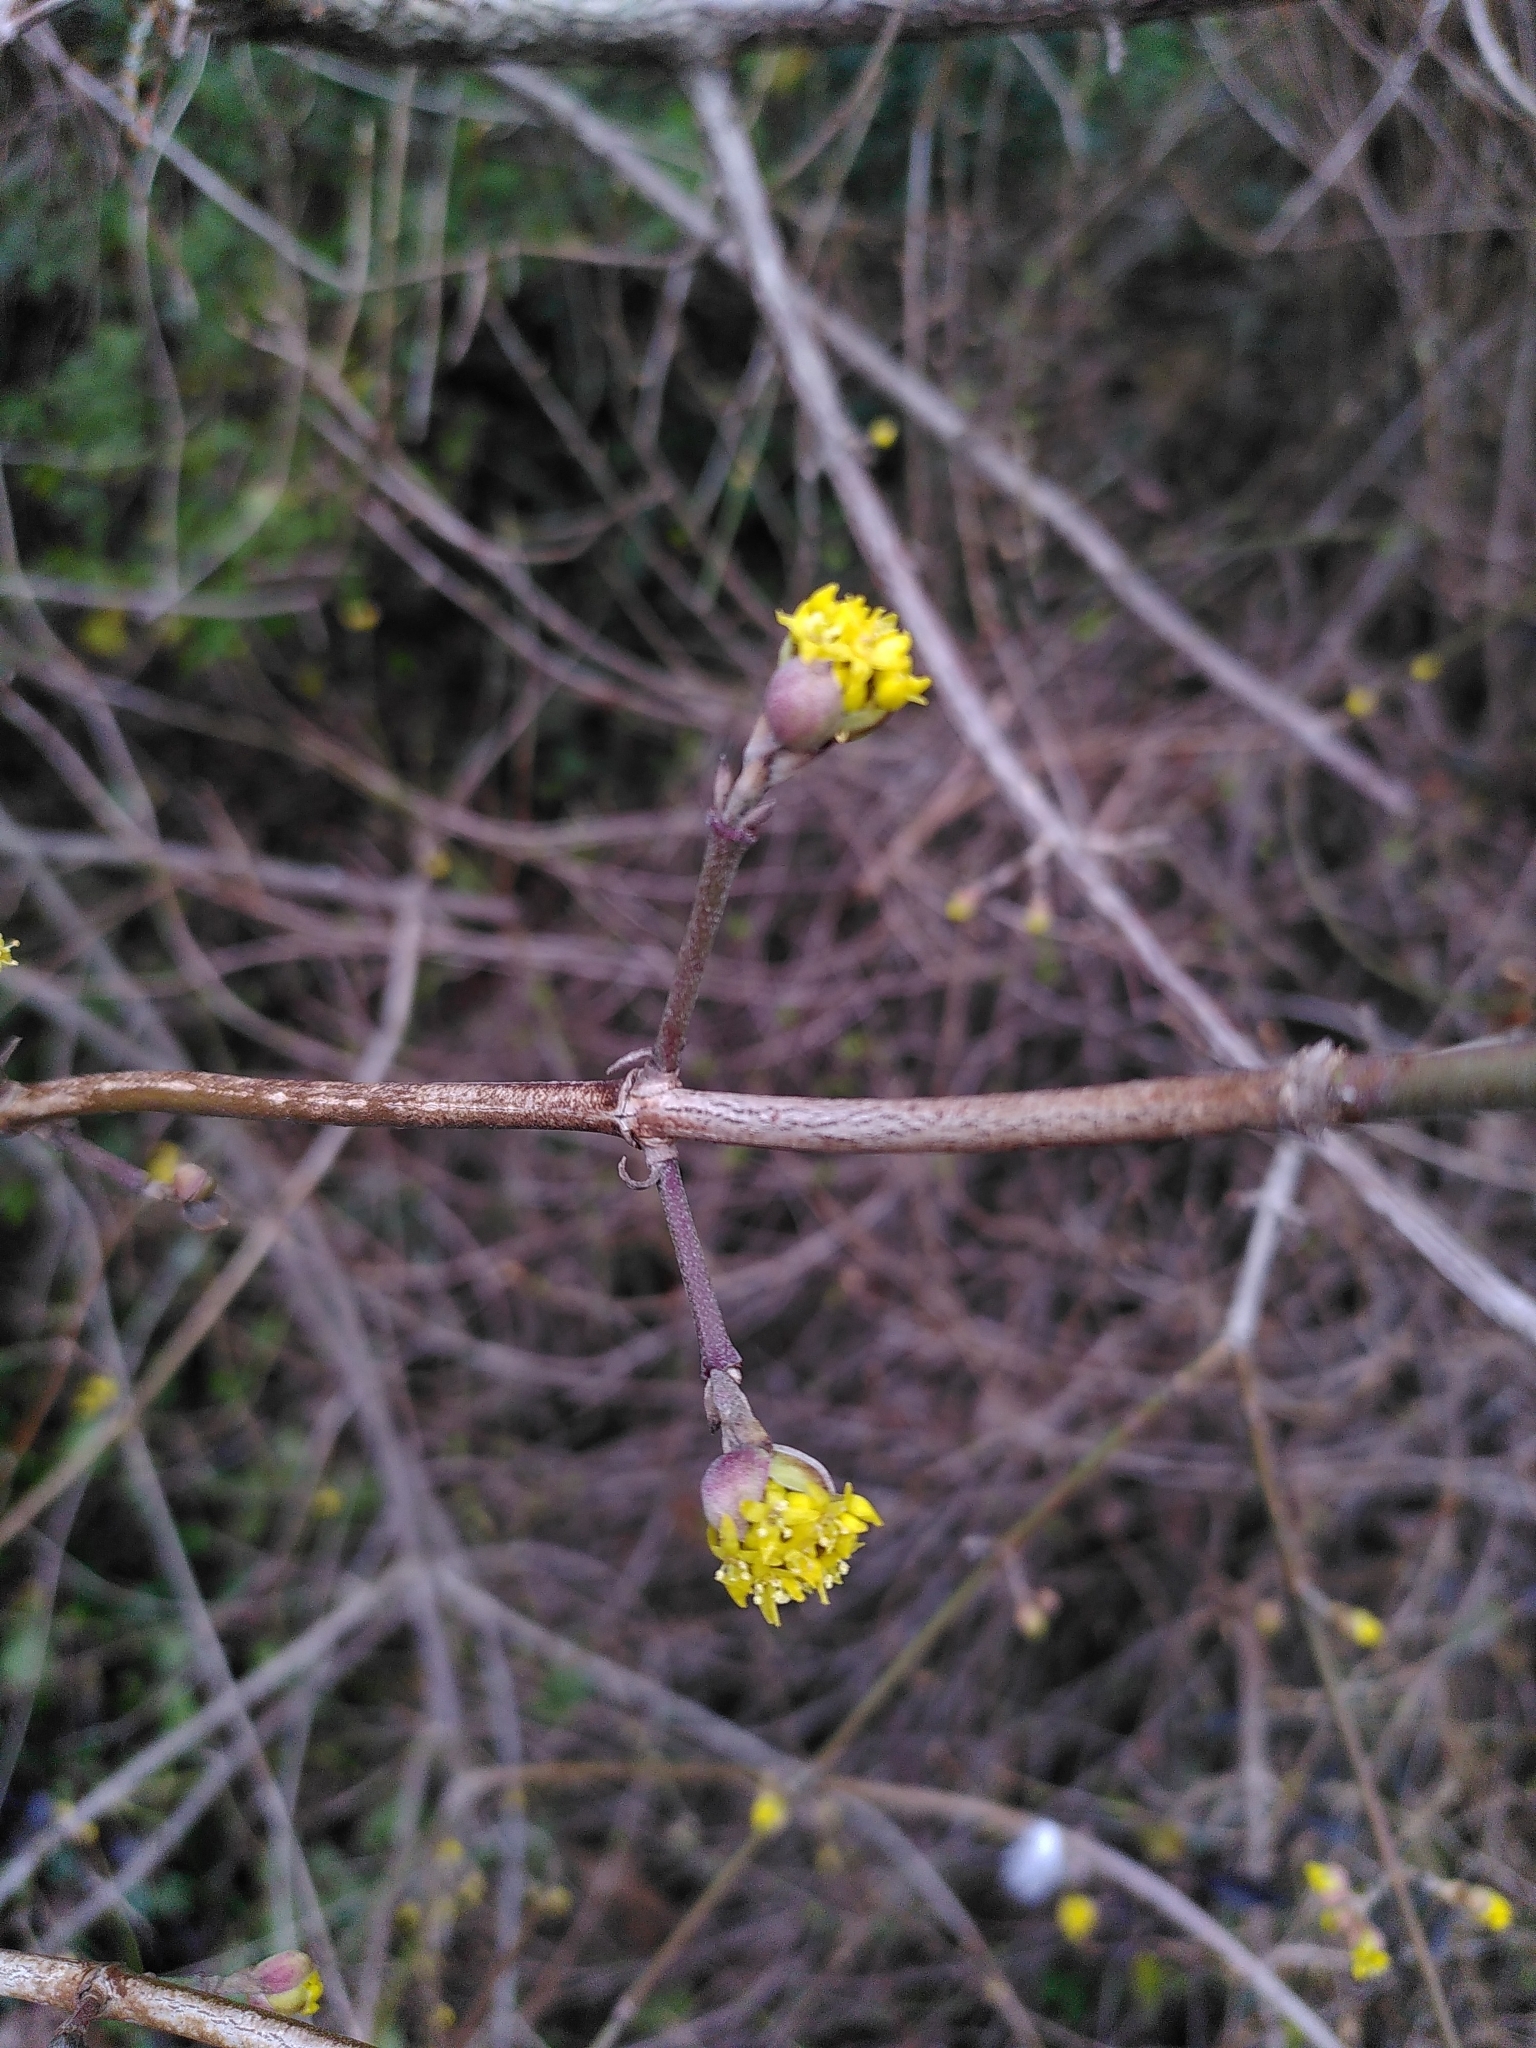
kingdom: Plantae
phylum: Tracheophyta
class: Magnoliopsida
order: Cornales
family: Cornaceae
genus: Cornus
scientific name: Cornus mas
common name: Cornelian-cherry
